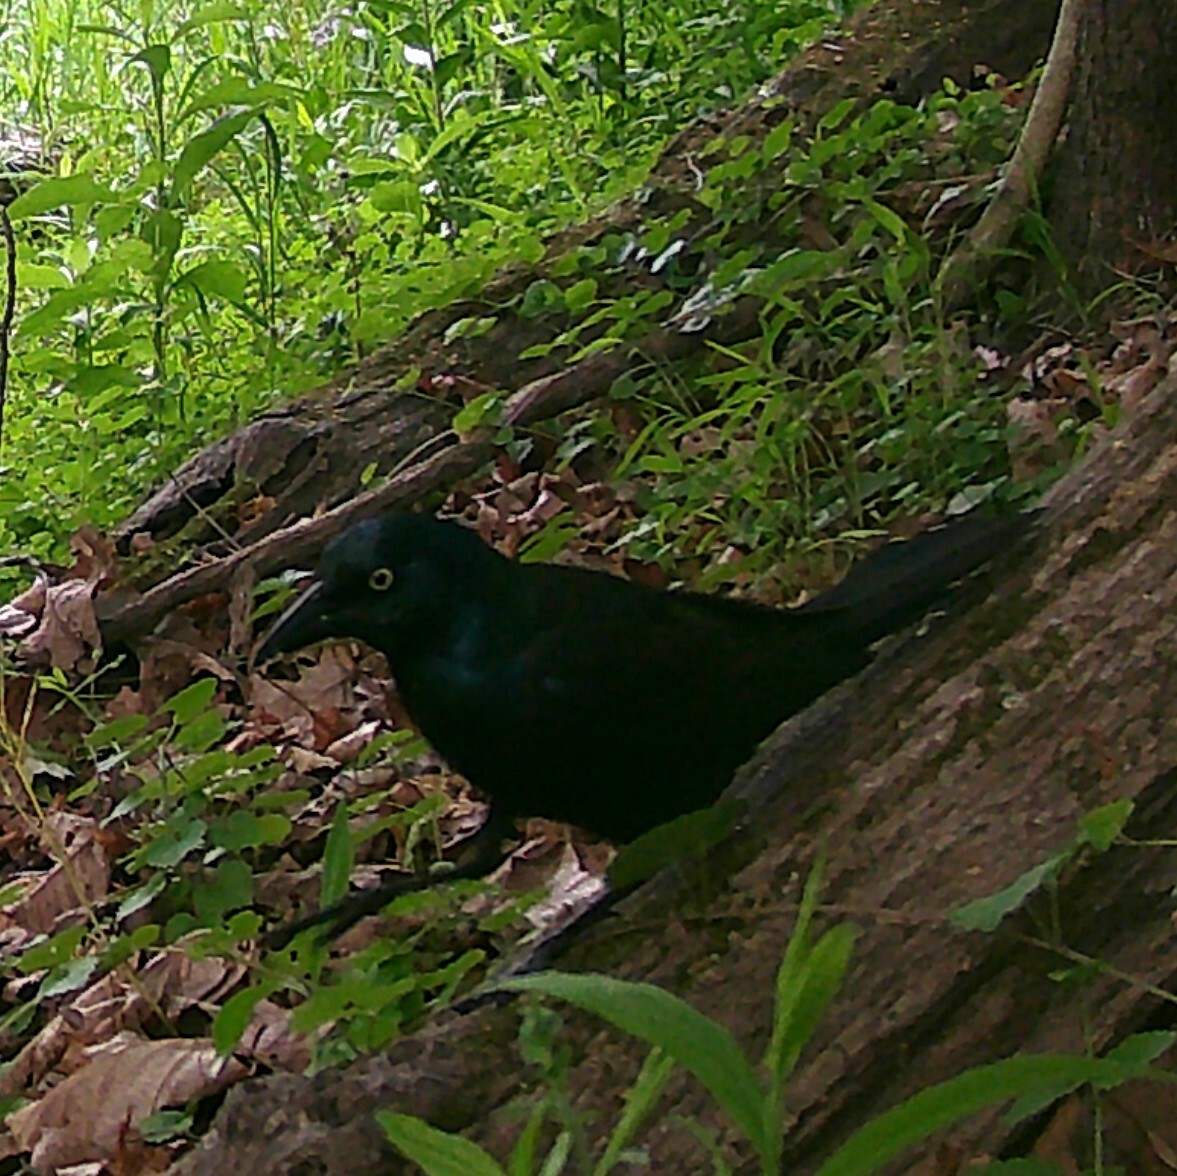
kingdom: Animalia
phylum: Chordata
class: Aves
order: Passeriformes
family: Icteridae
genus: Quiscalus
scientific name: Quiscalus quiscula
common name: Common grackle
